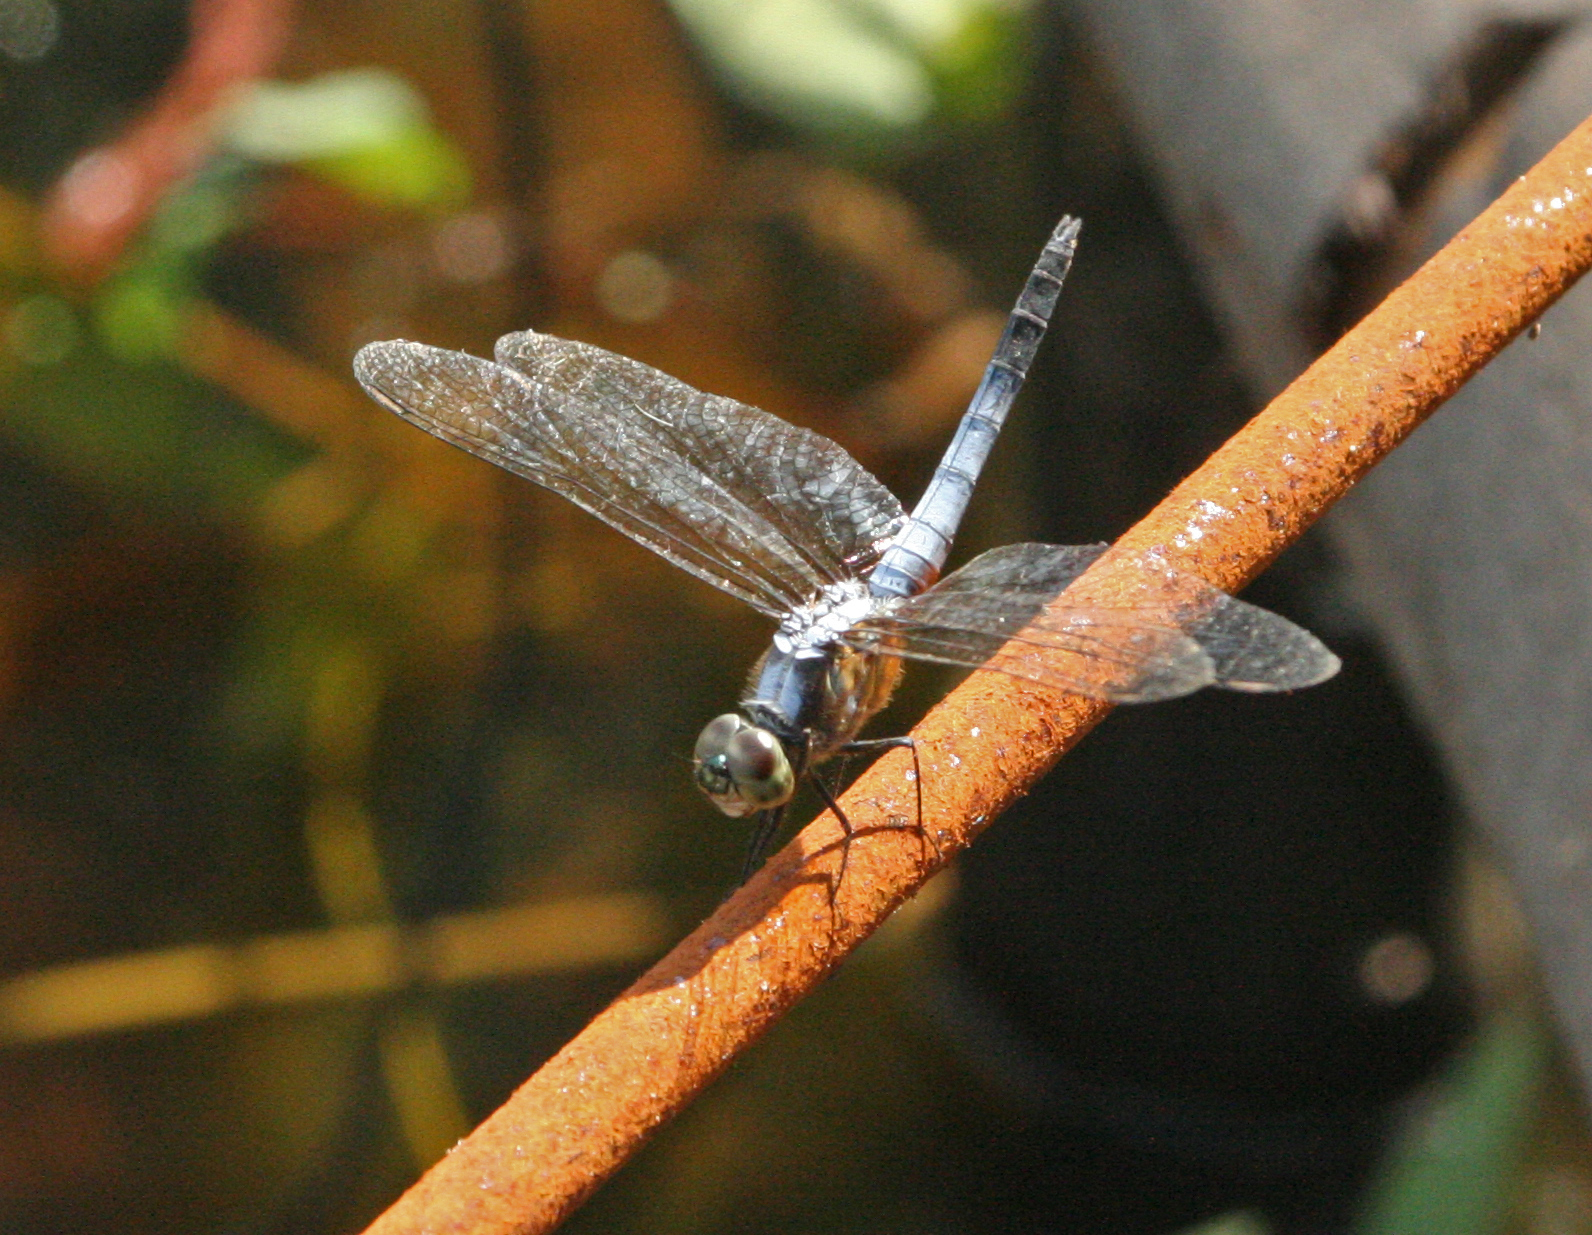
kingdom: Animalia
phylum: Arthropoda
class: Insecta
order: Odonata
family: Libellulidae
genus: Brachydiplax
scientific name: Brachydiplax chalybea
